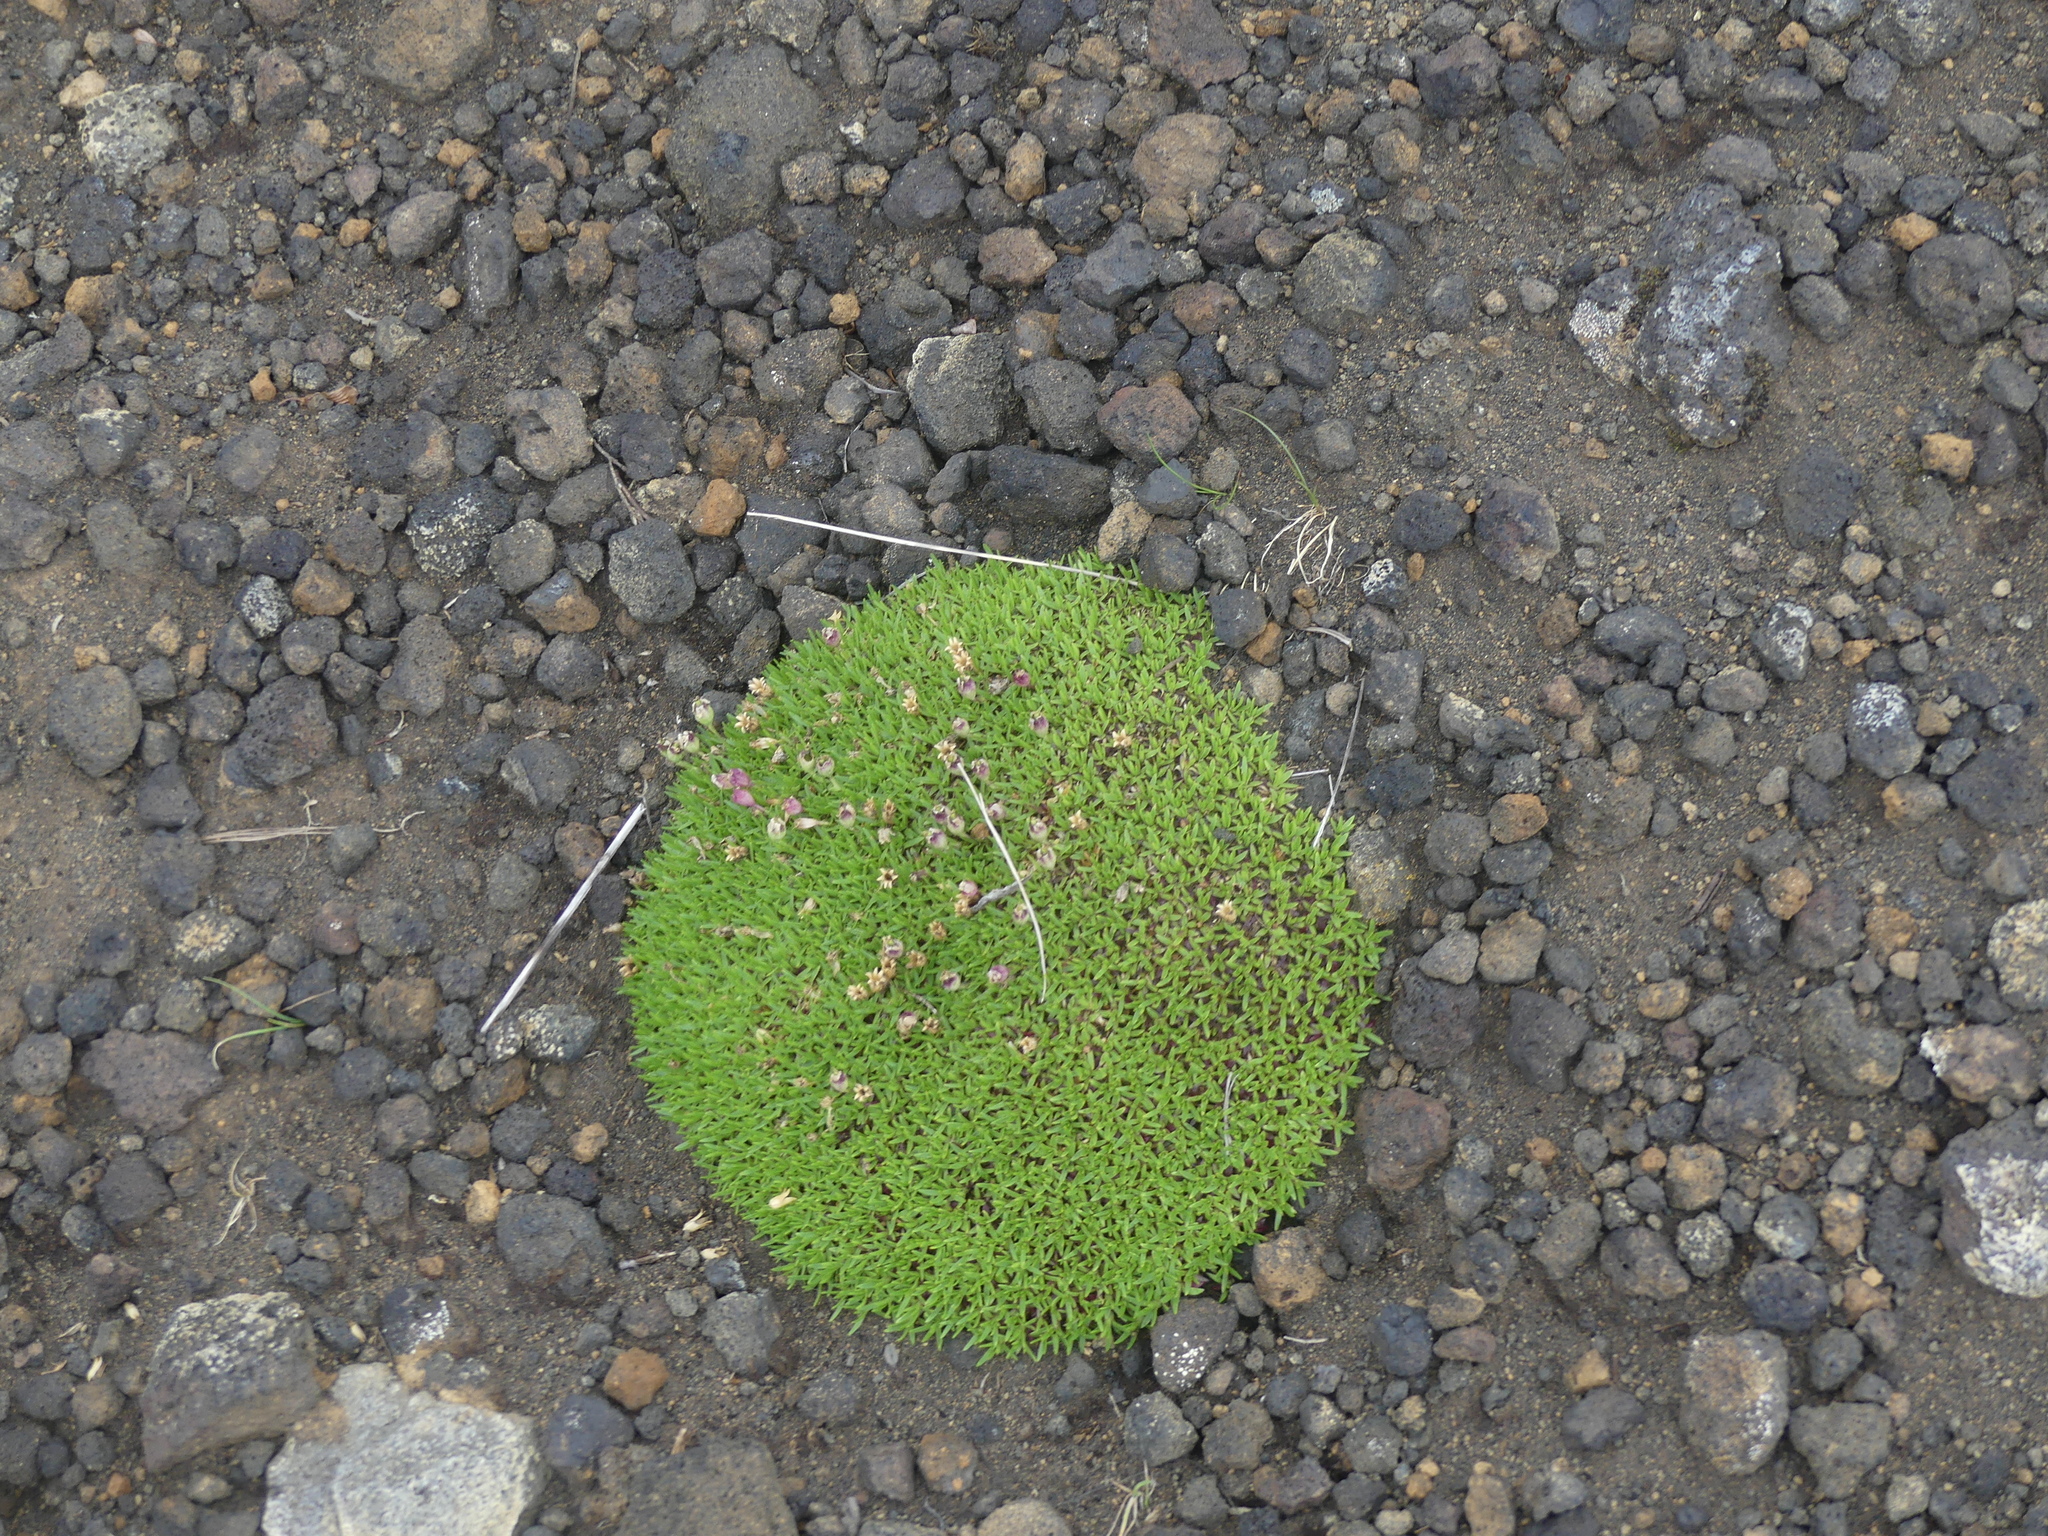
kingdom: Plantae
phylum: Tracheophyta
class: Magnoliopsida
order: Caryophyllales
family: Caryophyllaceae
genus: Silene
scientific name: Silene acaulis
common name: Moss campion
